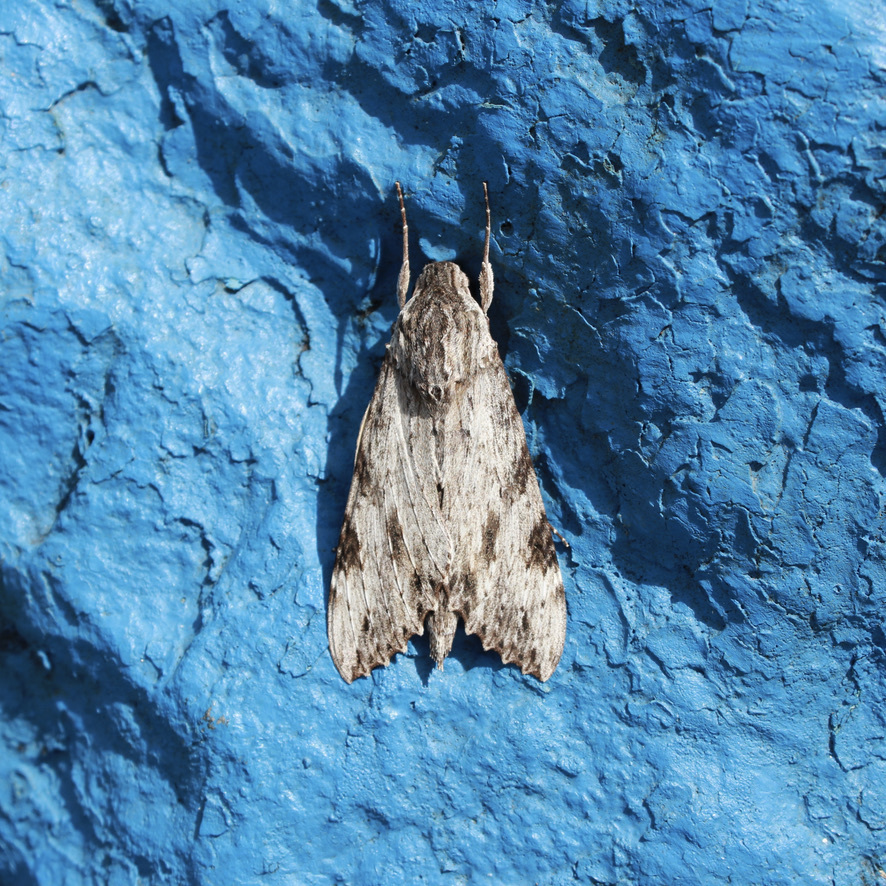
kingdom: Animalia
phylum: Arthropoda
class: Insecta
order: Lepidoptera
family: Sphingidae
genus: Erinnyis
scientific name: Erinnyis oenotrus
